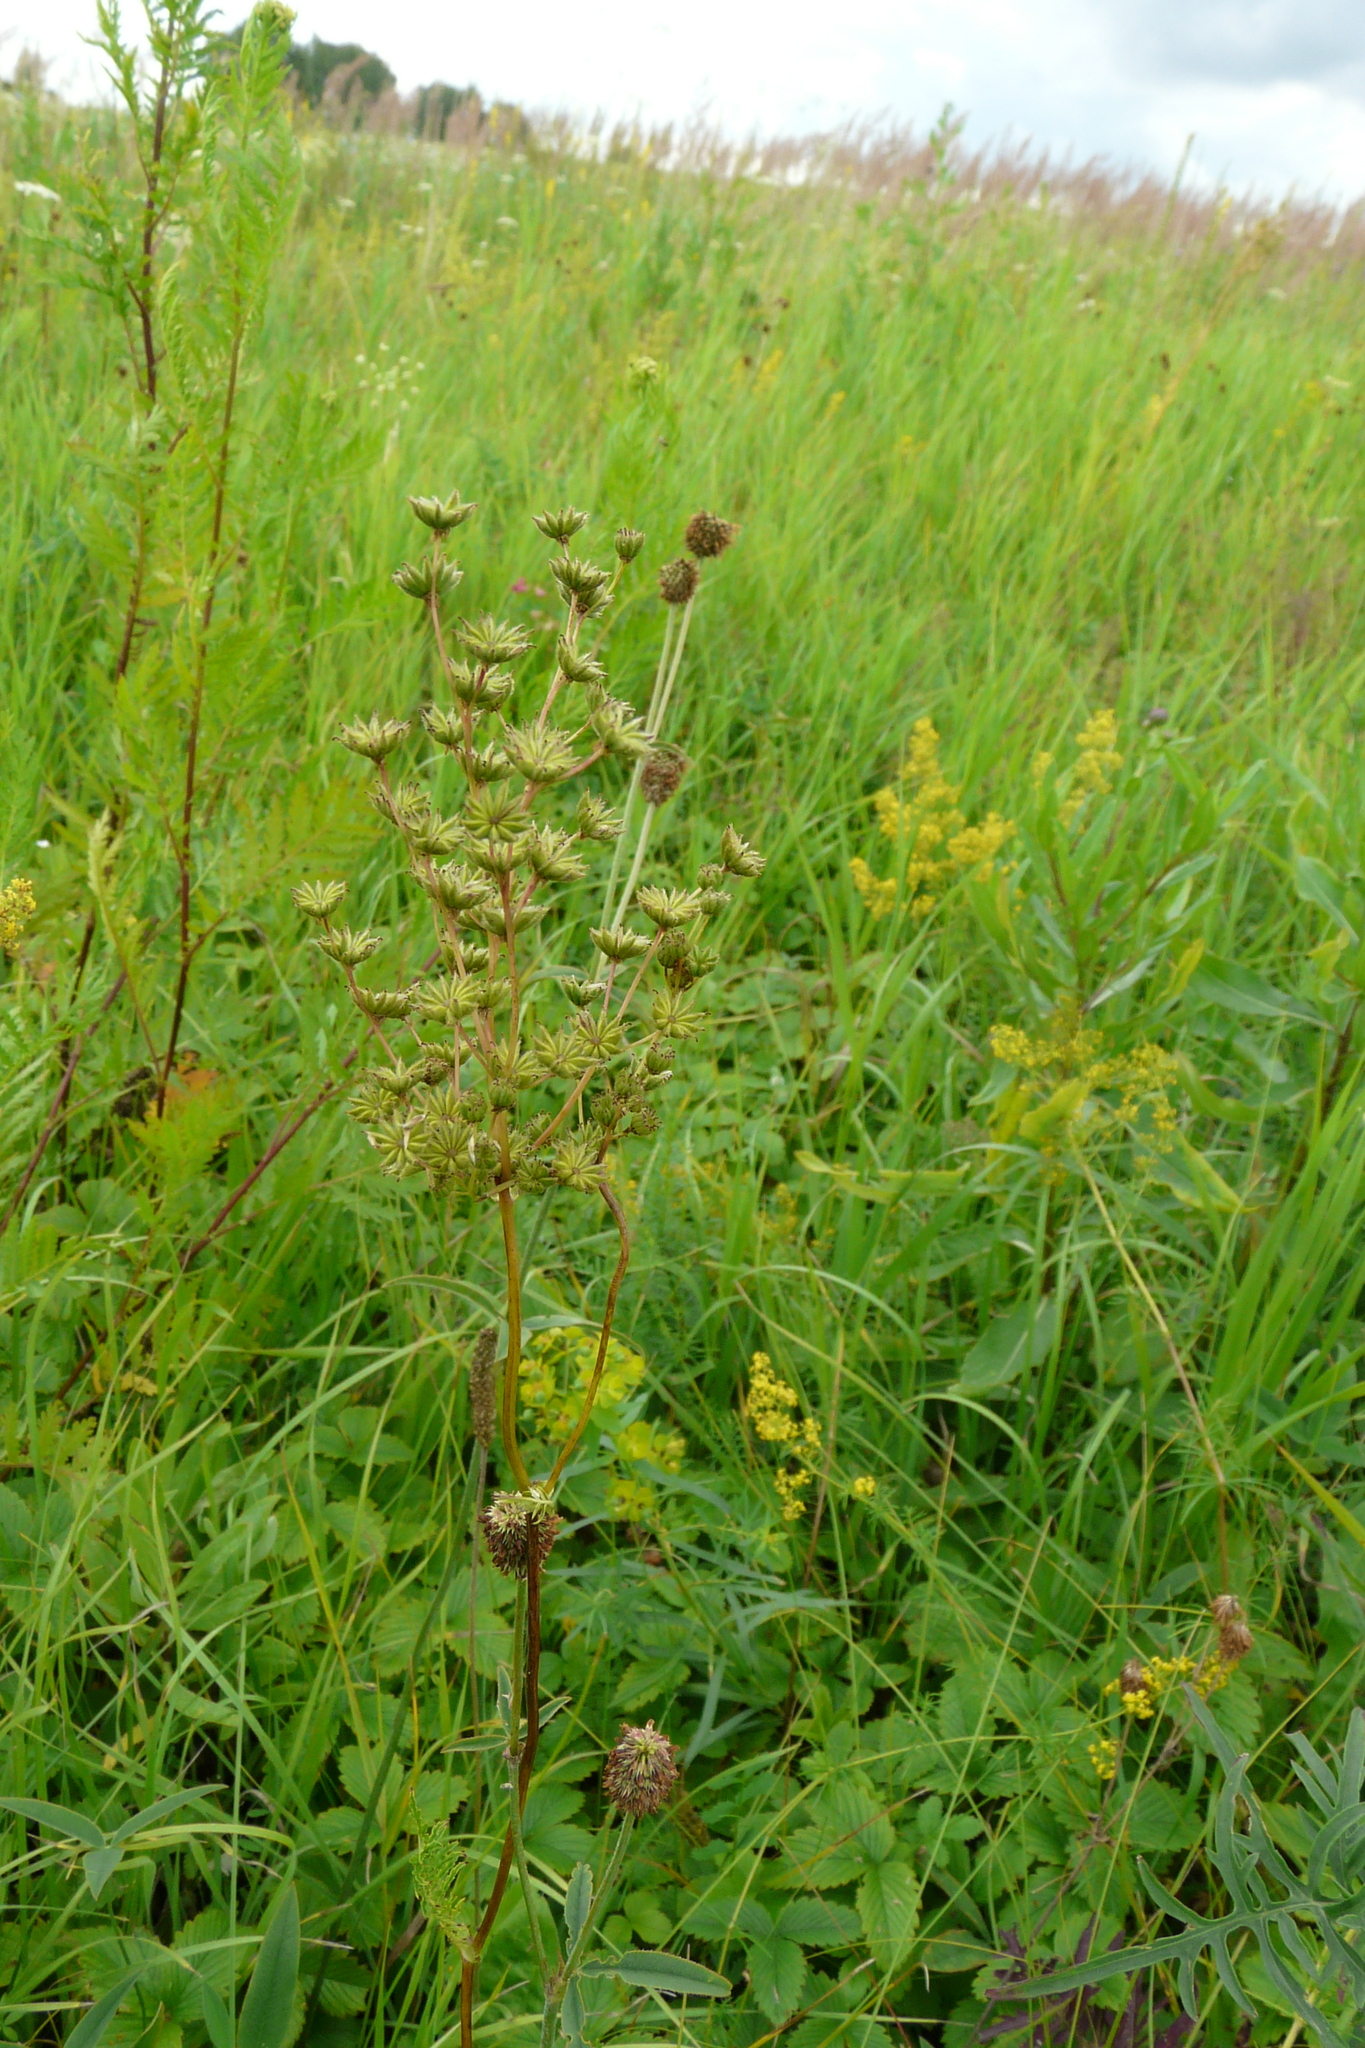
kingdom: Plantae
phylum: Tracheophyta
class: Magnoliopsida
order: Rosales
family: Rosaceae
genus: Filipendula
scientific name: Filipendula vulgaris
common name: Dropwort
